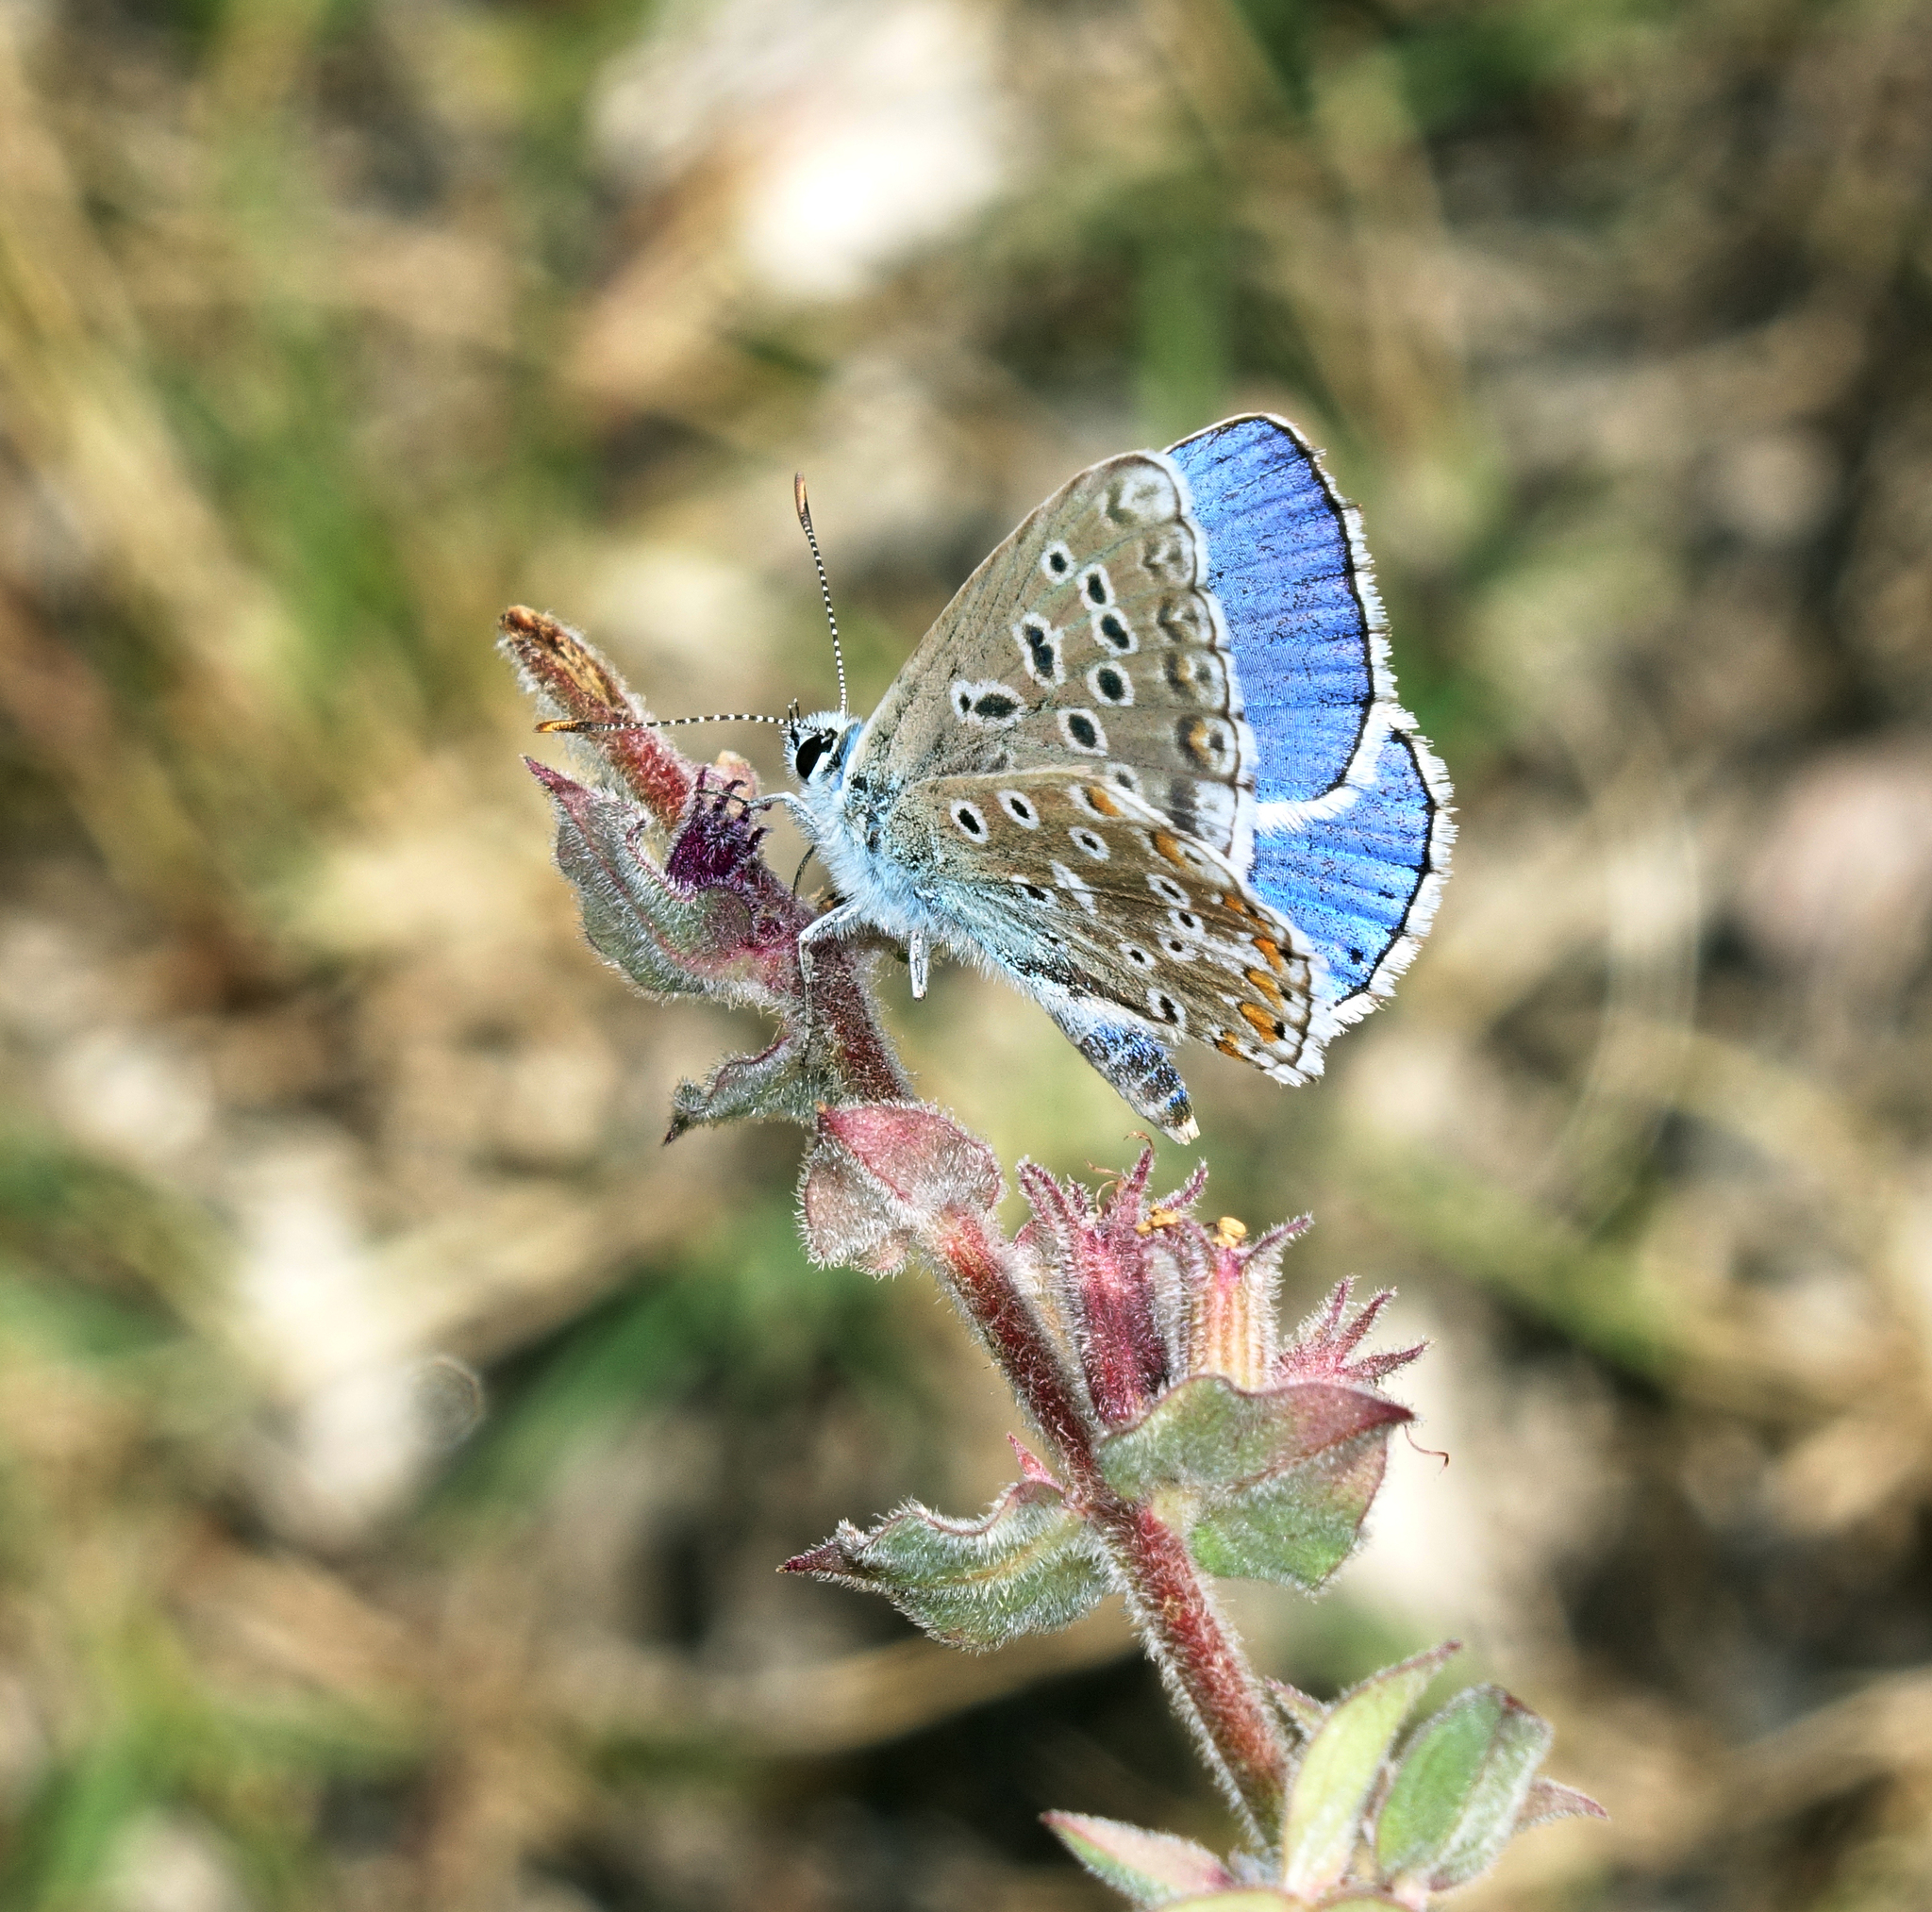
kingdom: Animalia
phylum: Arthropoda
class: Insecta
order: Lepidoptera
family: Lycaenidae
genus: Agriades
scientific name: Agriades corydonius
